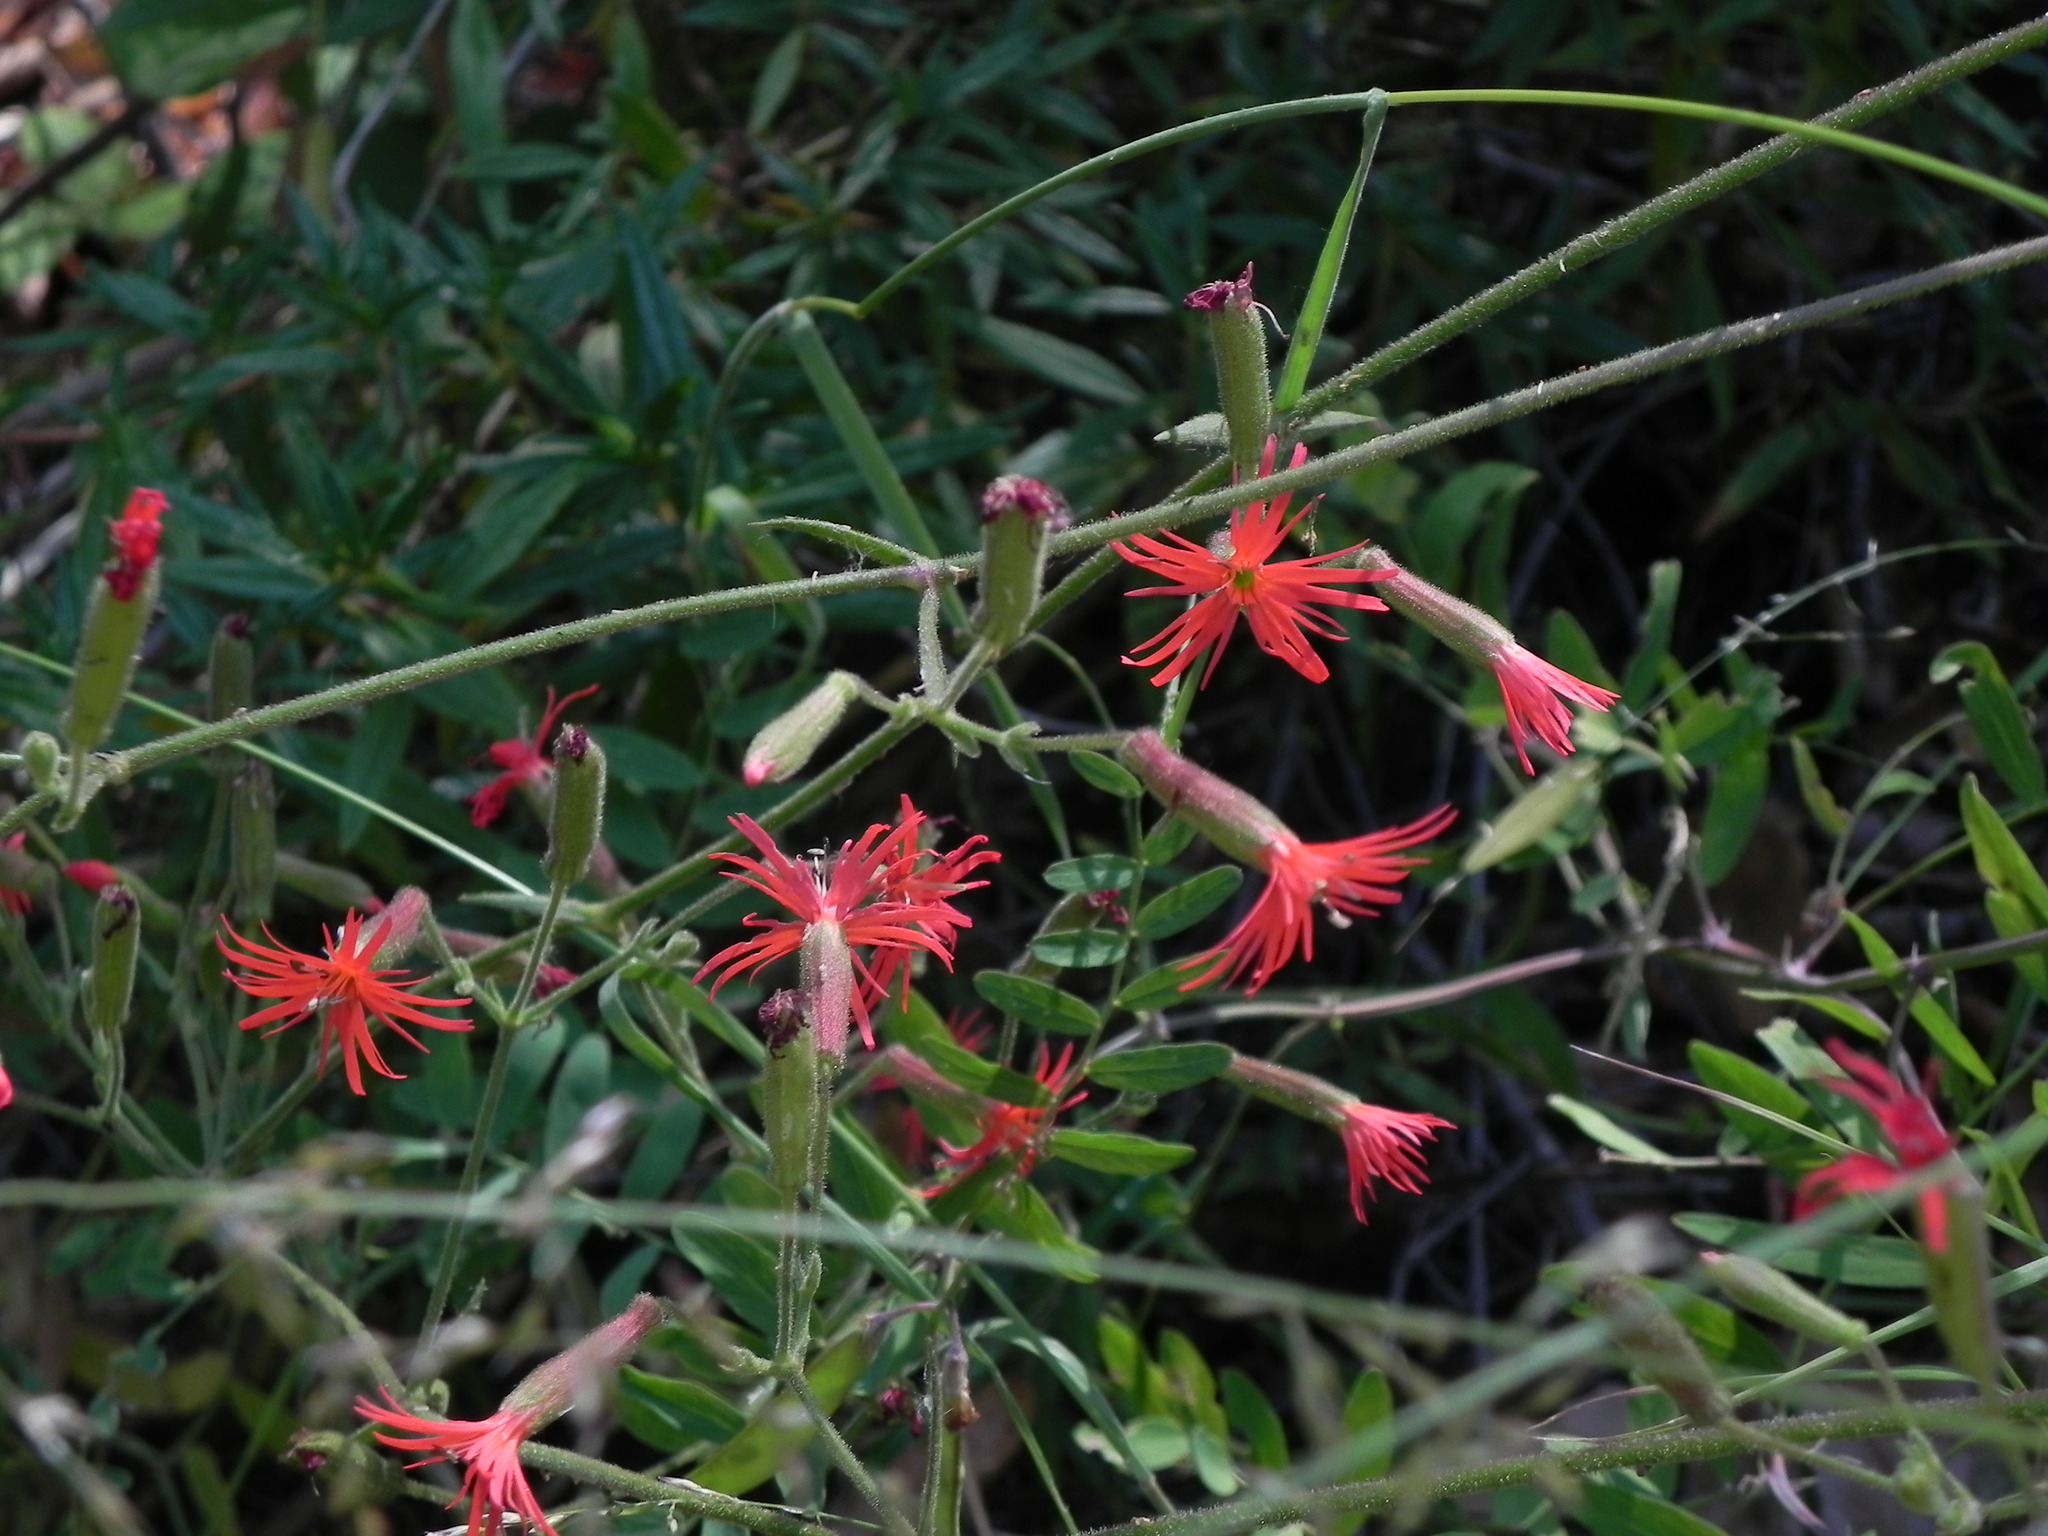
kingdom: Plantae
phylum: Tracheophyta
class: Magnoliopsida
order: Caryophyllales
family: Caryophyllaceae
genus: Silene
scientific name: Silene laciniata
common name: Indian-pink
